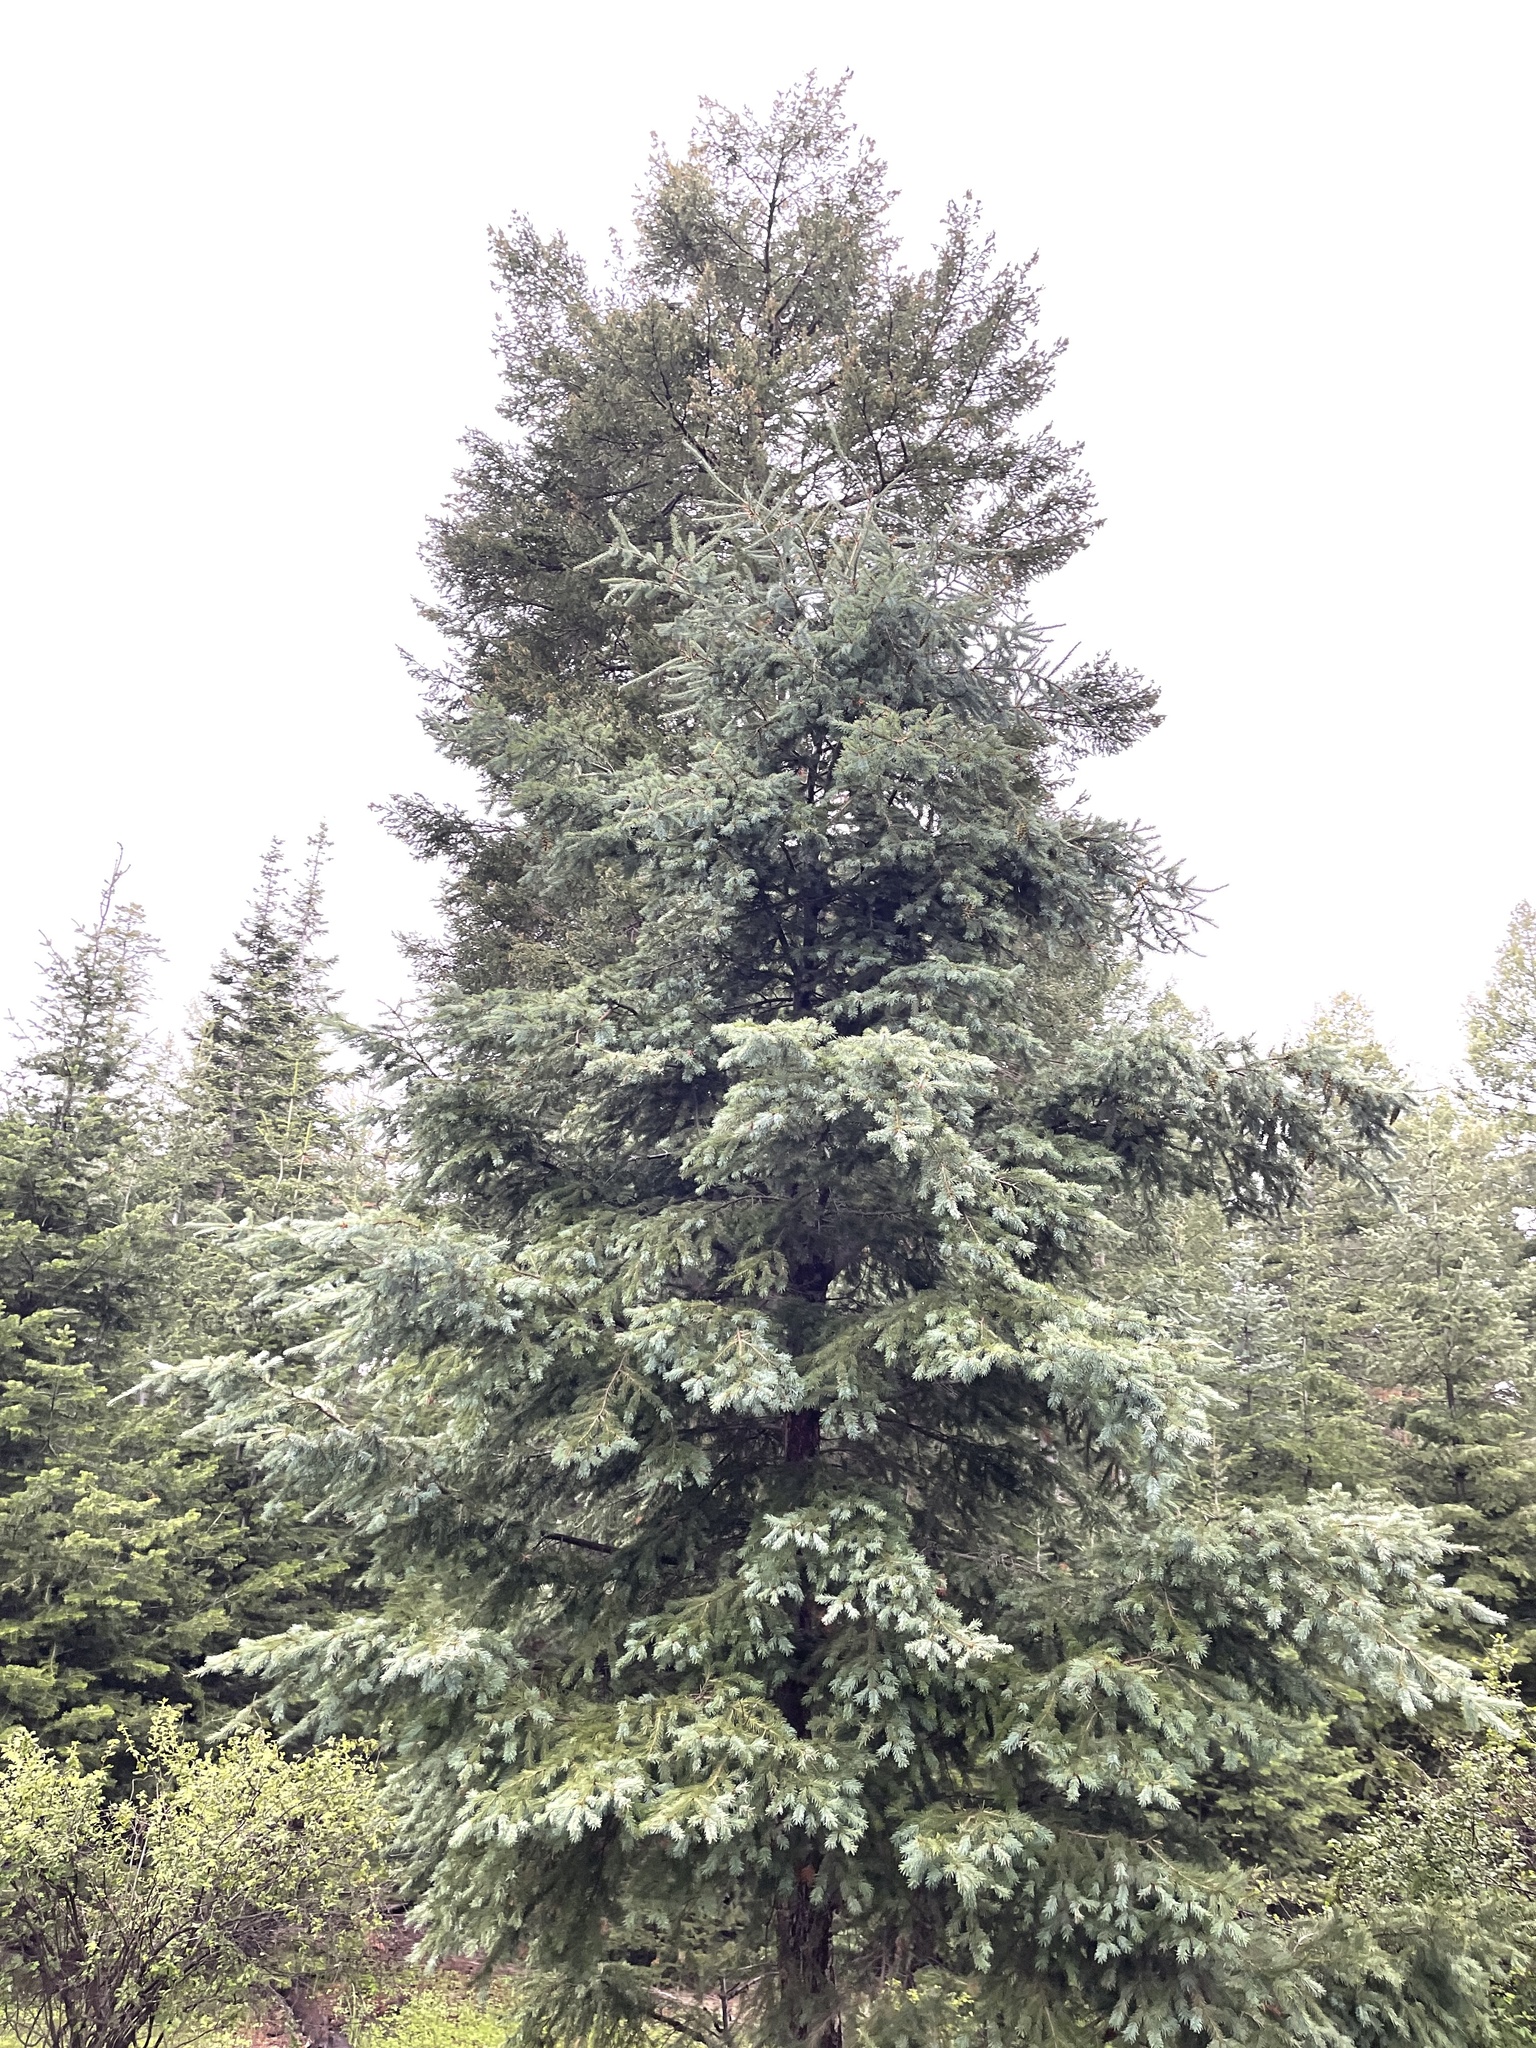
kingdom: Plantae
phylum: Tracheophyta
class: Pinopsida
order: Pinales
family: Pinaceae
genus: Picea
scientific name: Picea engelmannii
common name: Engelmann spruce
